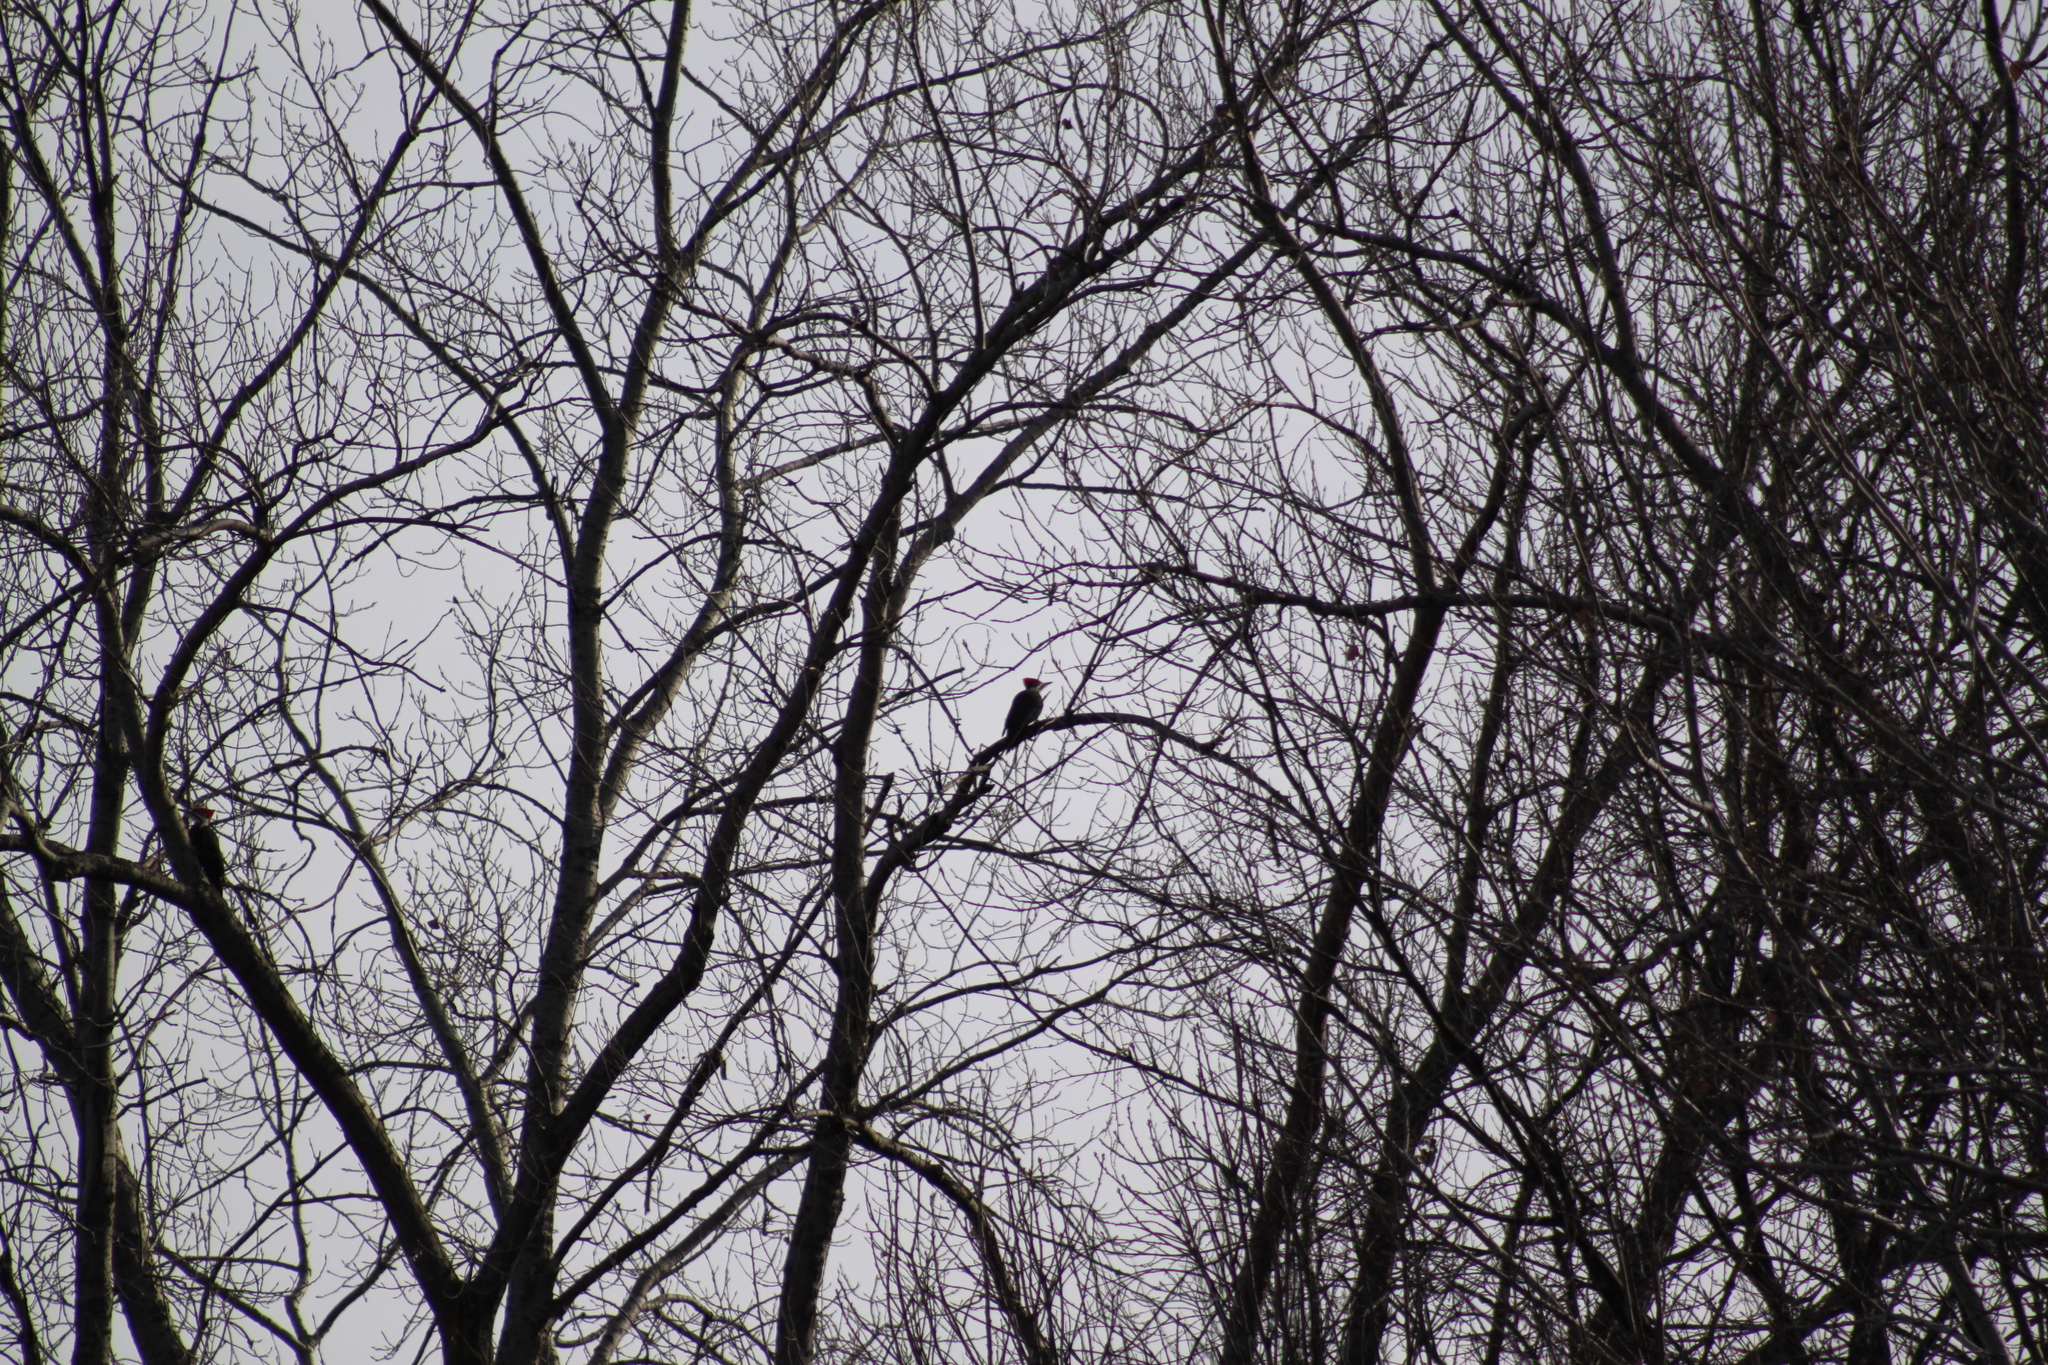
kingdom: Animalia
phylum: Chordata
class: Aves
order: Piciformes
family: Picidae
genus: Dryocopus
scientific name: Dryocopus pileatus
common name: Pileated woodpecker
